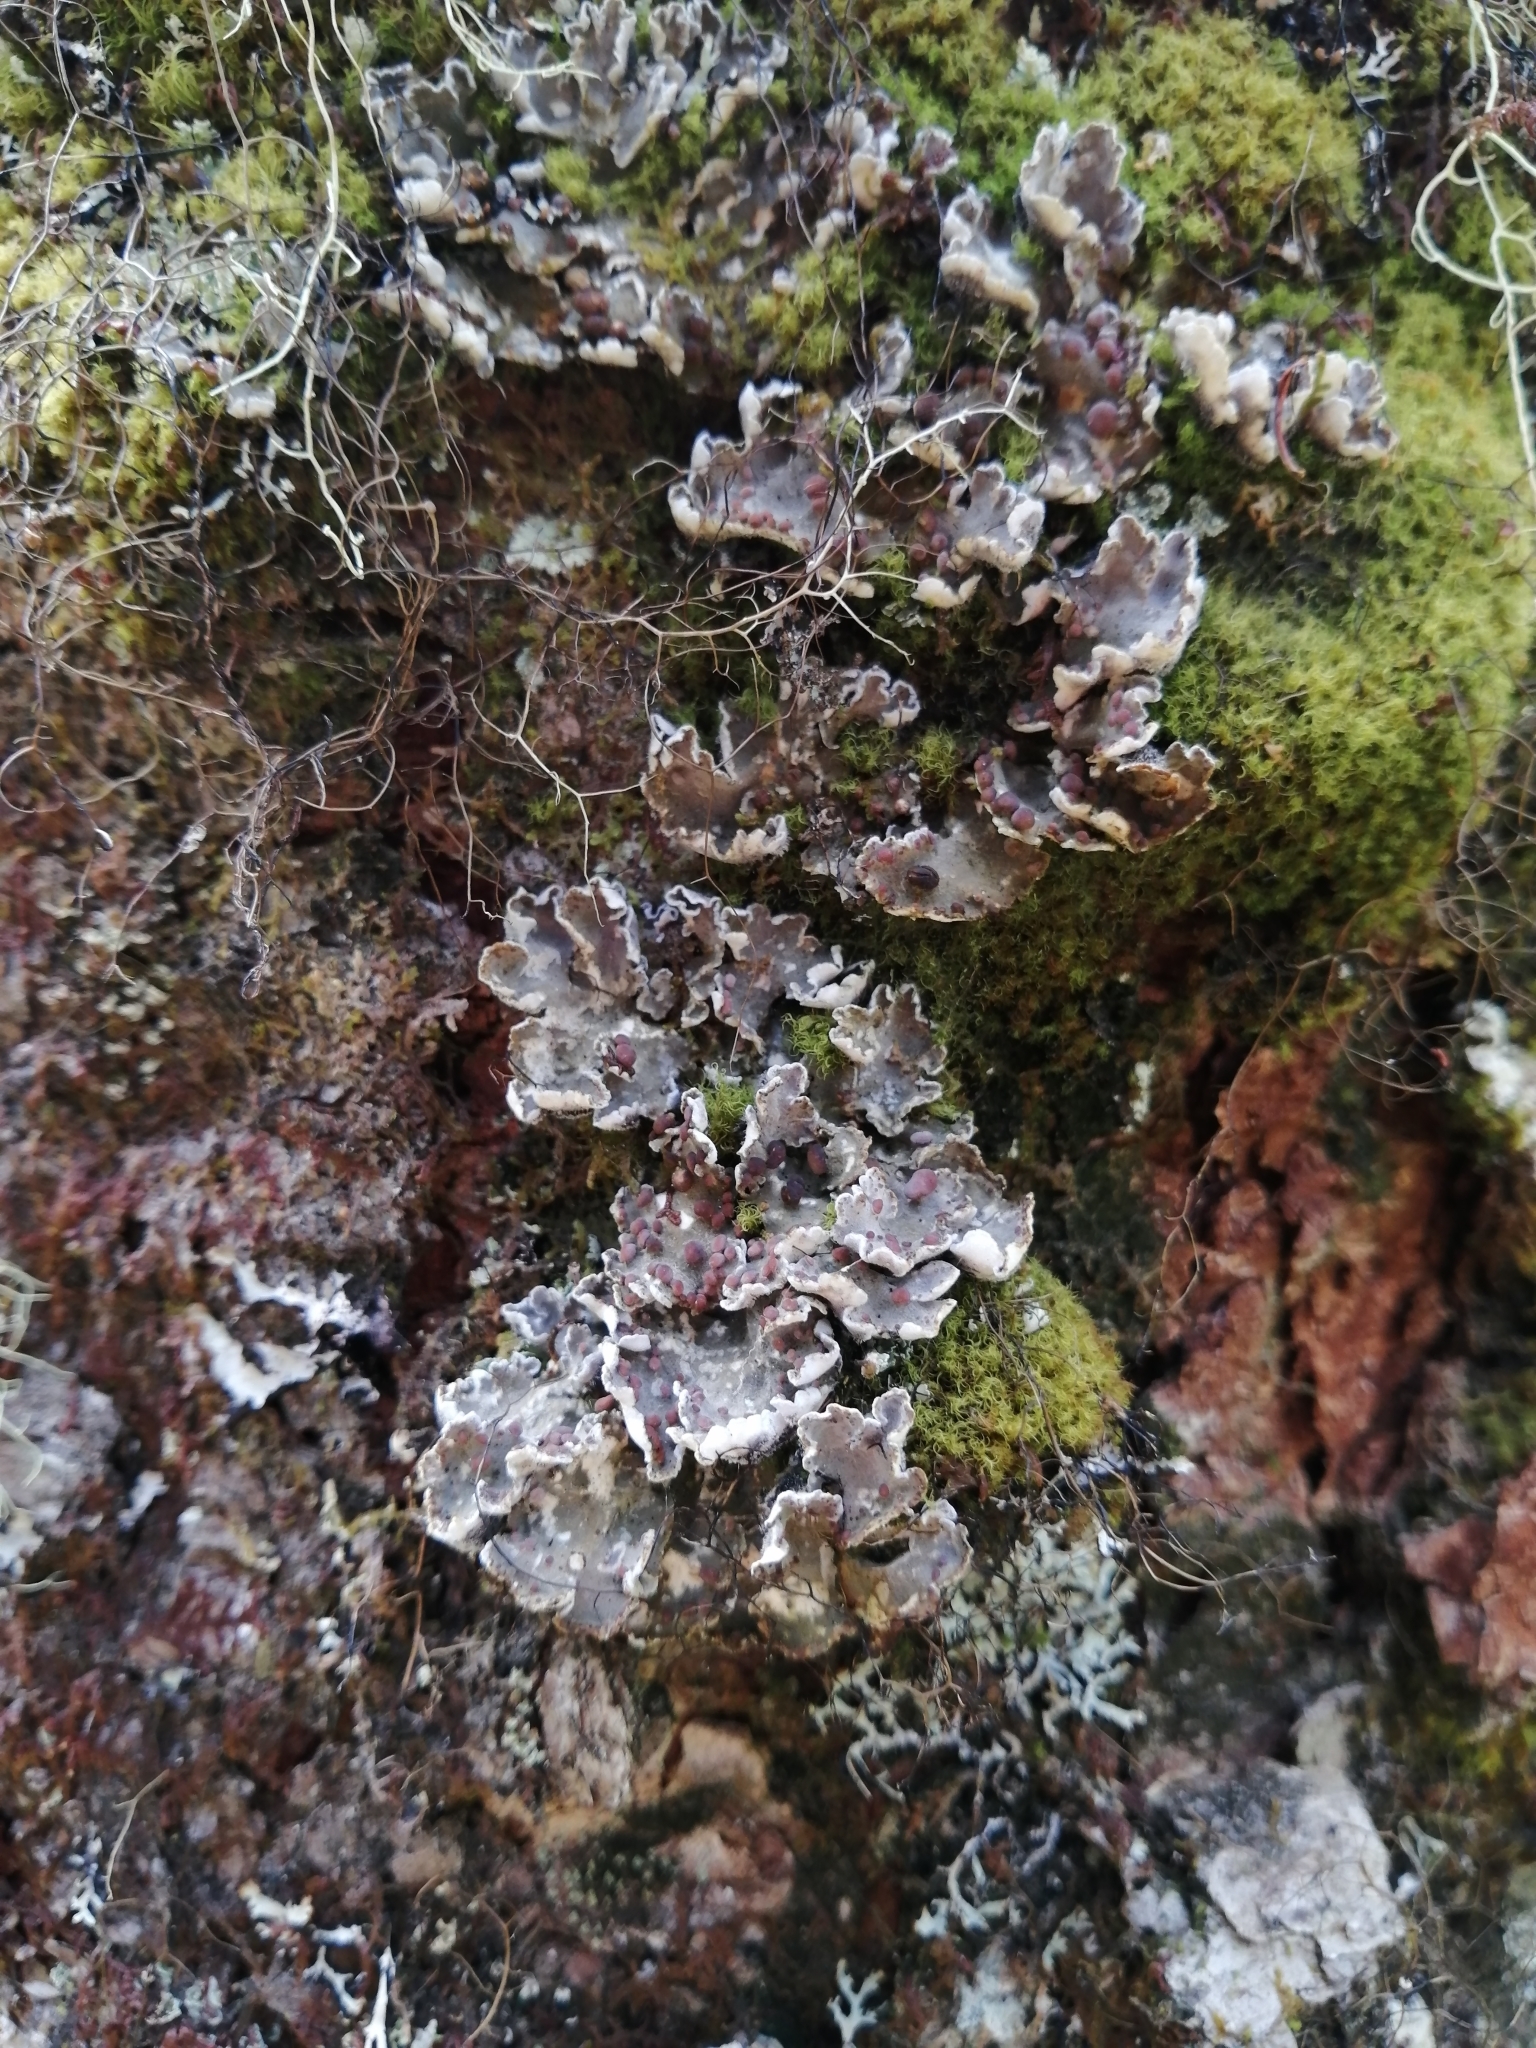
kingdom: Fungi
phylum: Ascomycota
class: Lecanoromycetes
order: Peltigerales
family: Pannariaceae
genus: Erioderma
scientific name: Erioderma pedicellatum
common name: Boreal felt lichen
